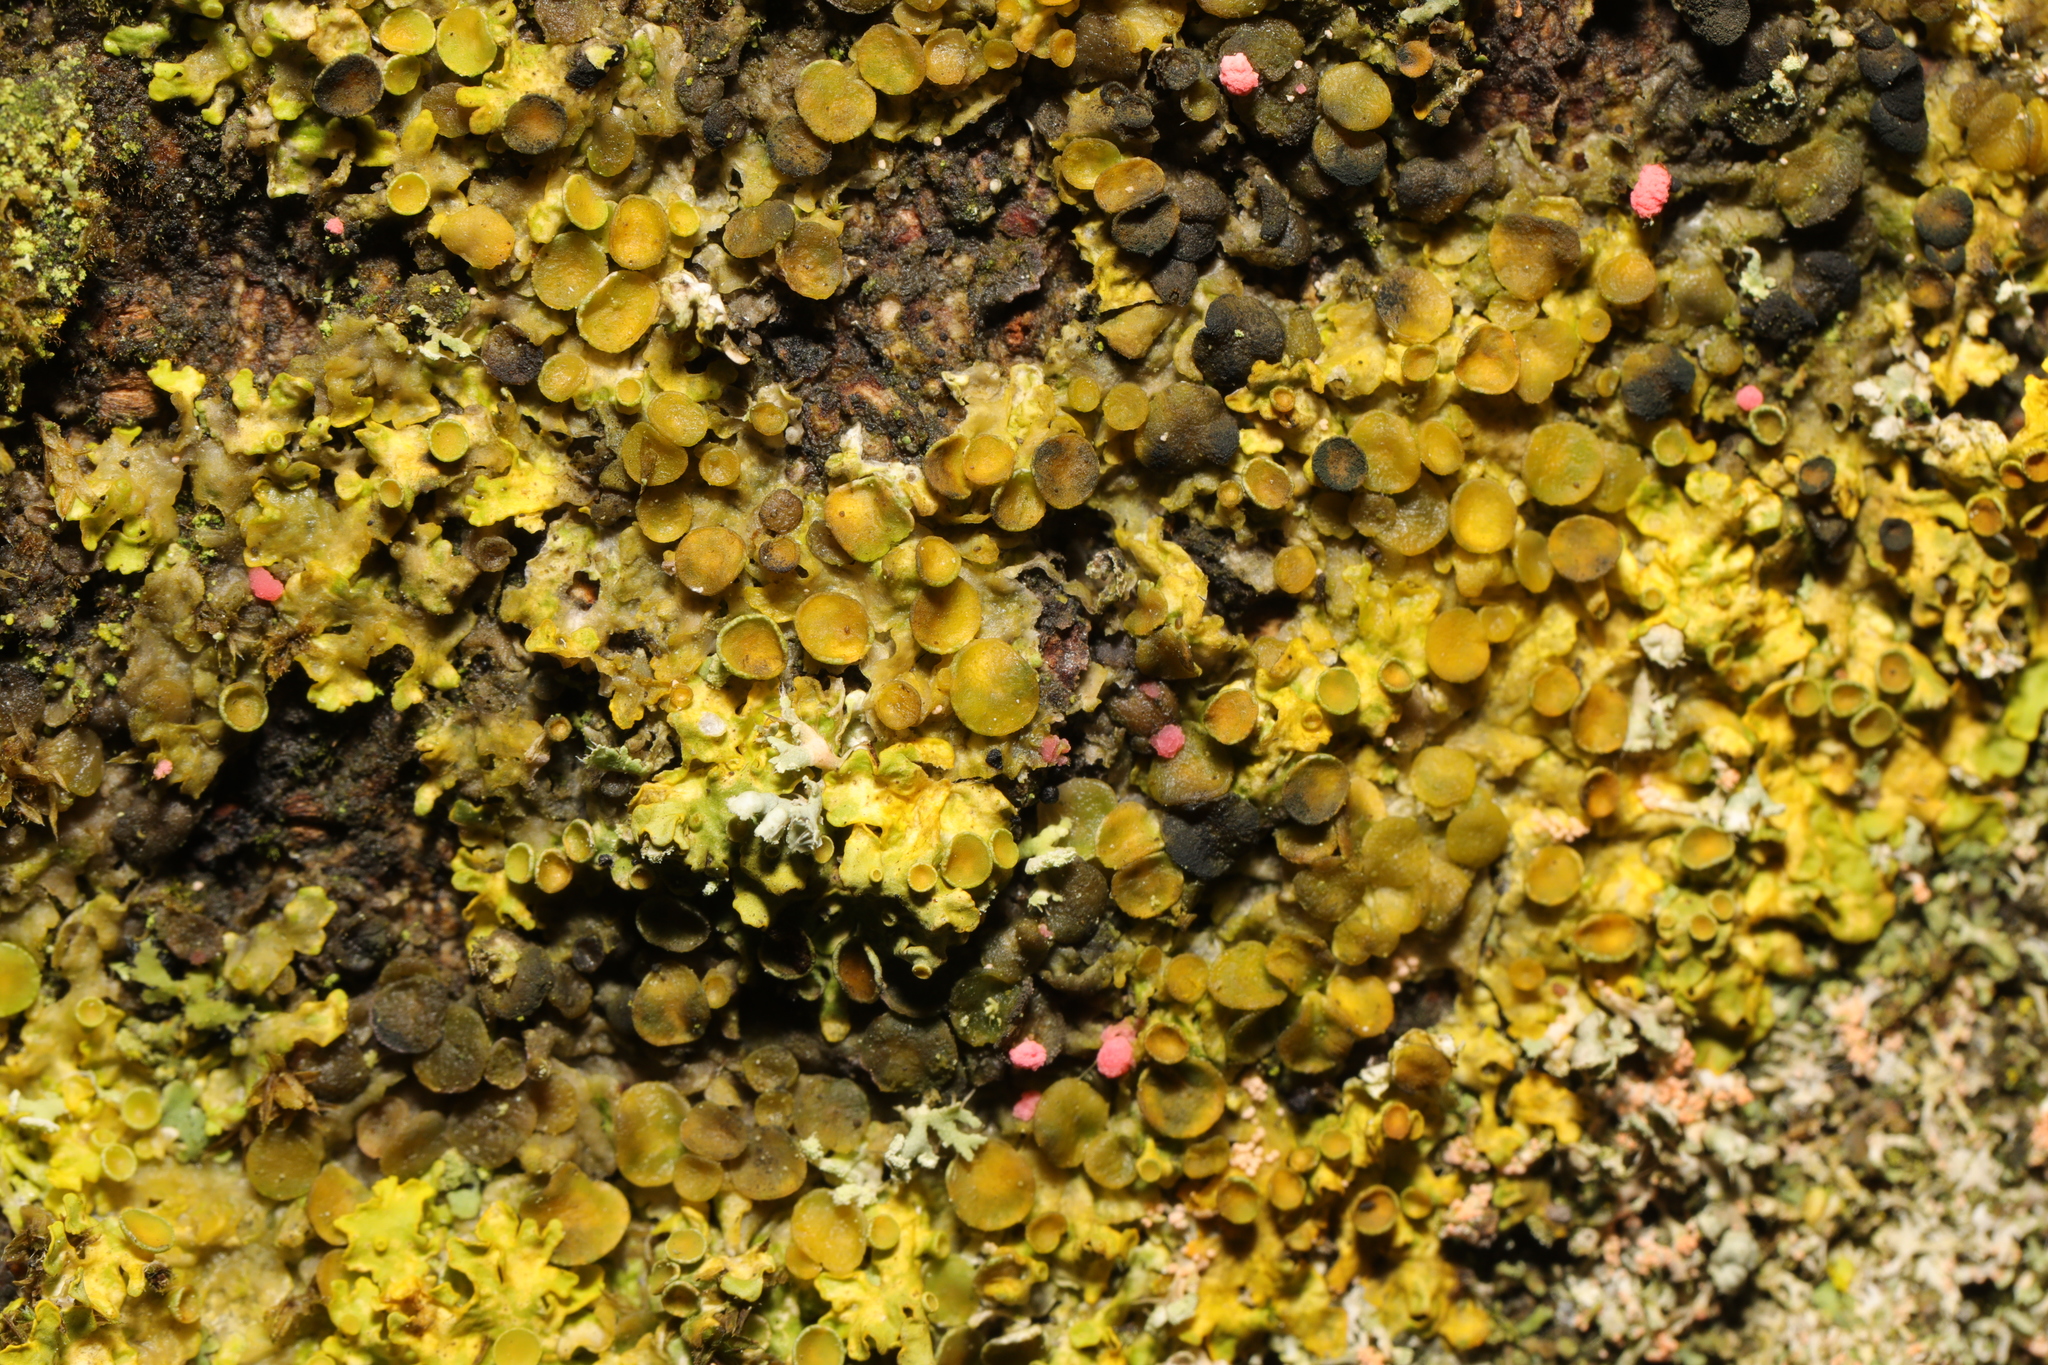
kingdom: Fungi
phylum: Ascomycota
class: Lecanoromycetes
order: Teloschistales
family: Teloschistaceae
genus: Xanthoria
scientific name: Xanthoria parietina
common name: Common orange lichen
